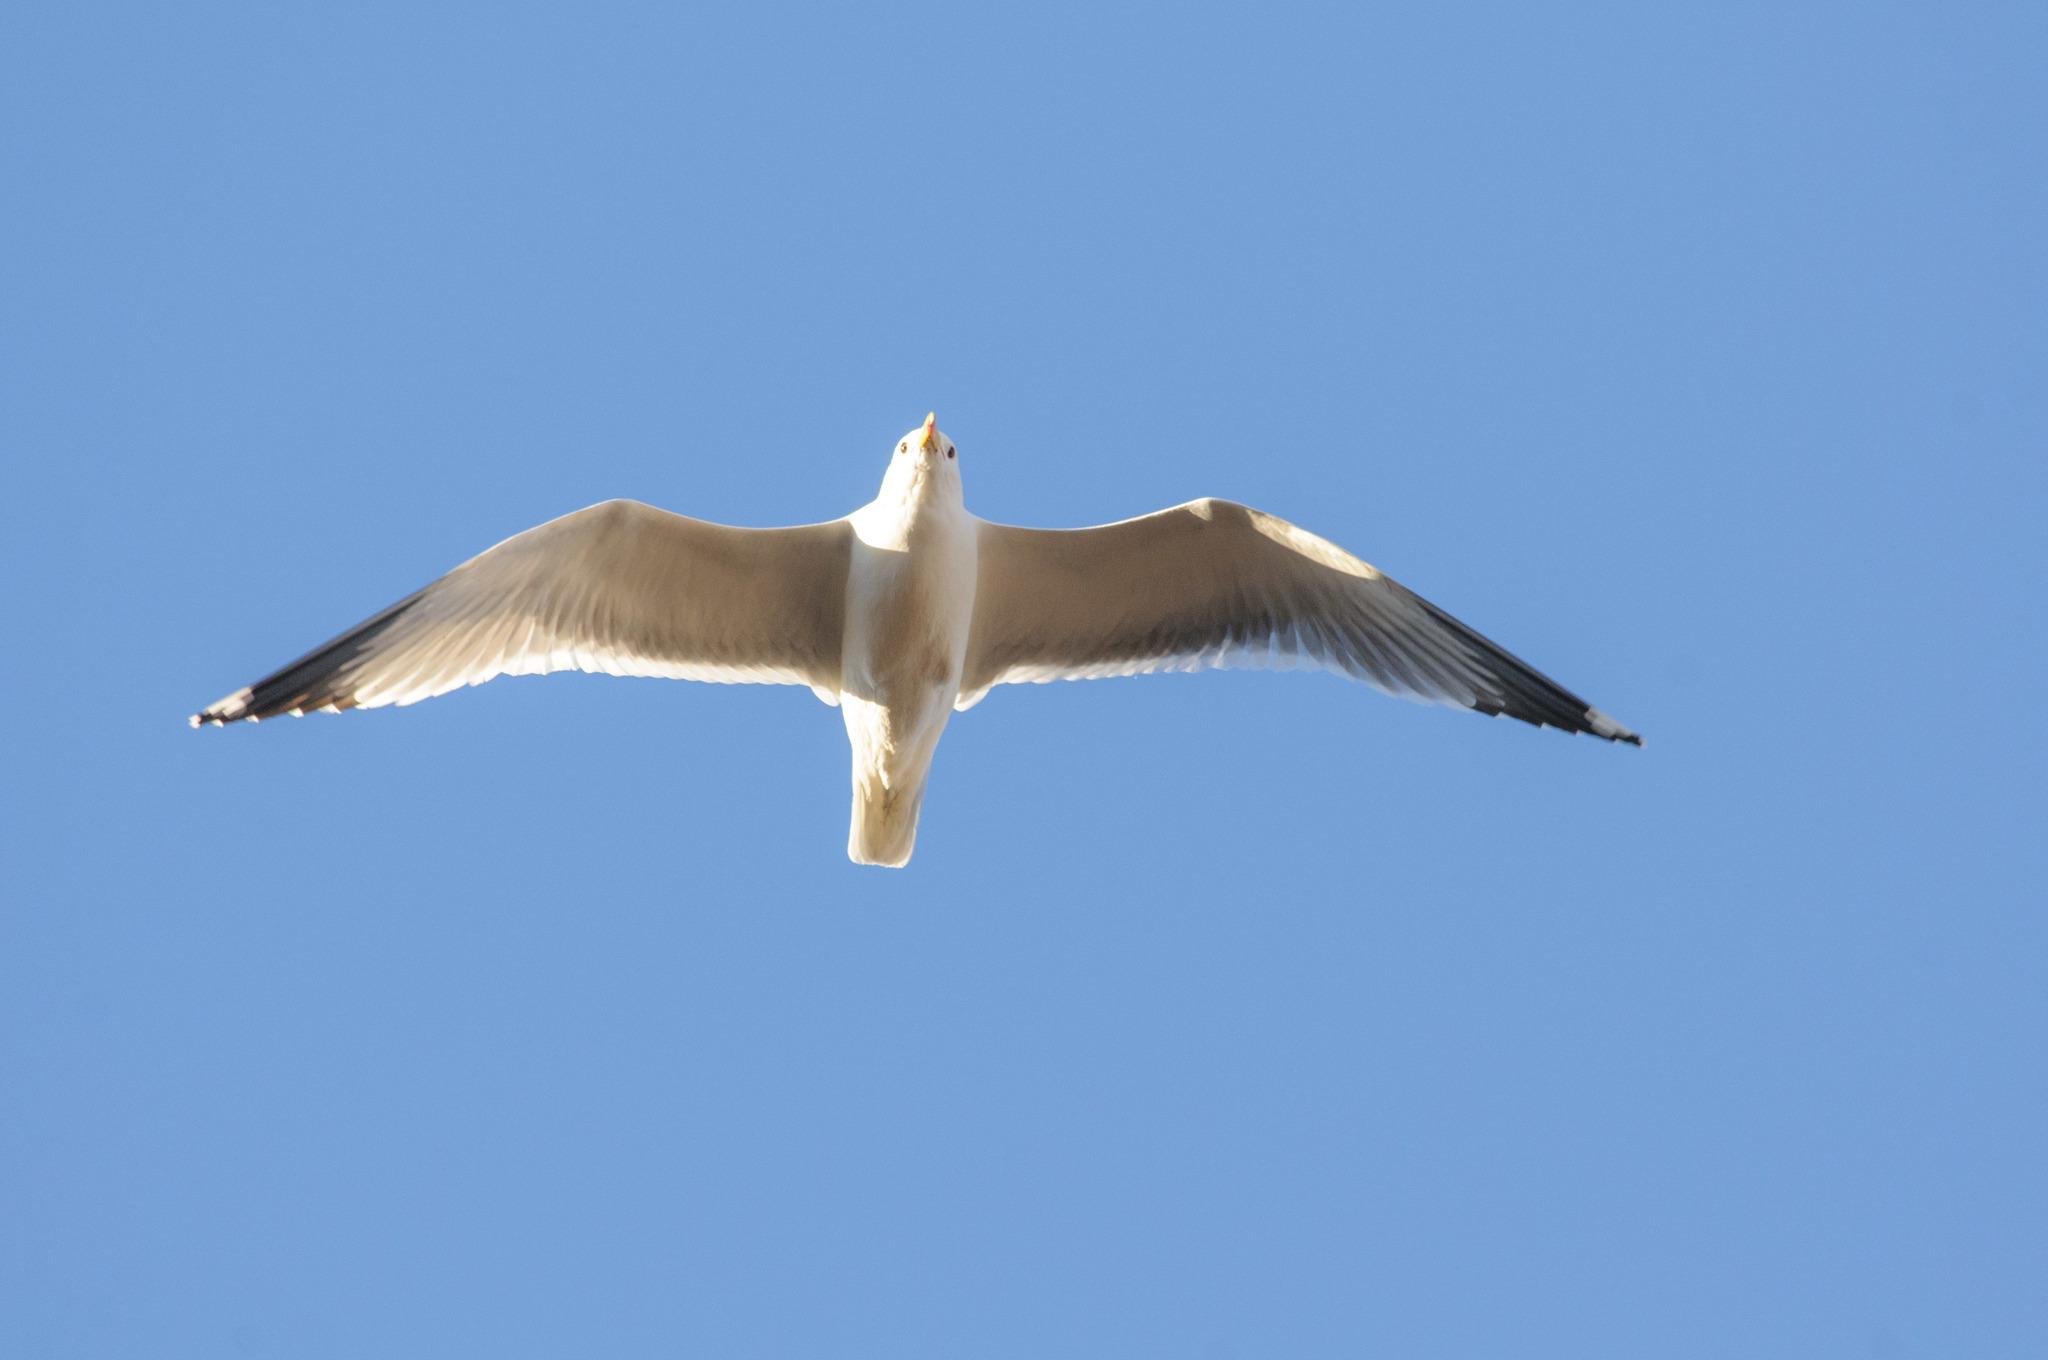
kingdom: Animalia
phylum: Chordata
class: Aves
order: Charadriiformes
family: Laridae
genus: Larus
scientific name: Larus californicus
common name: California gull
